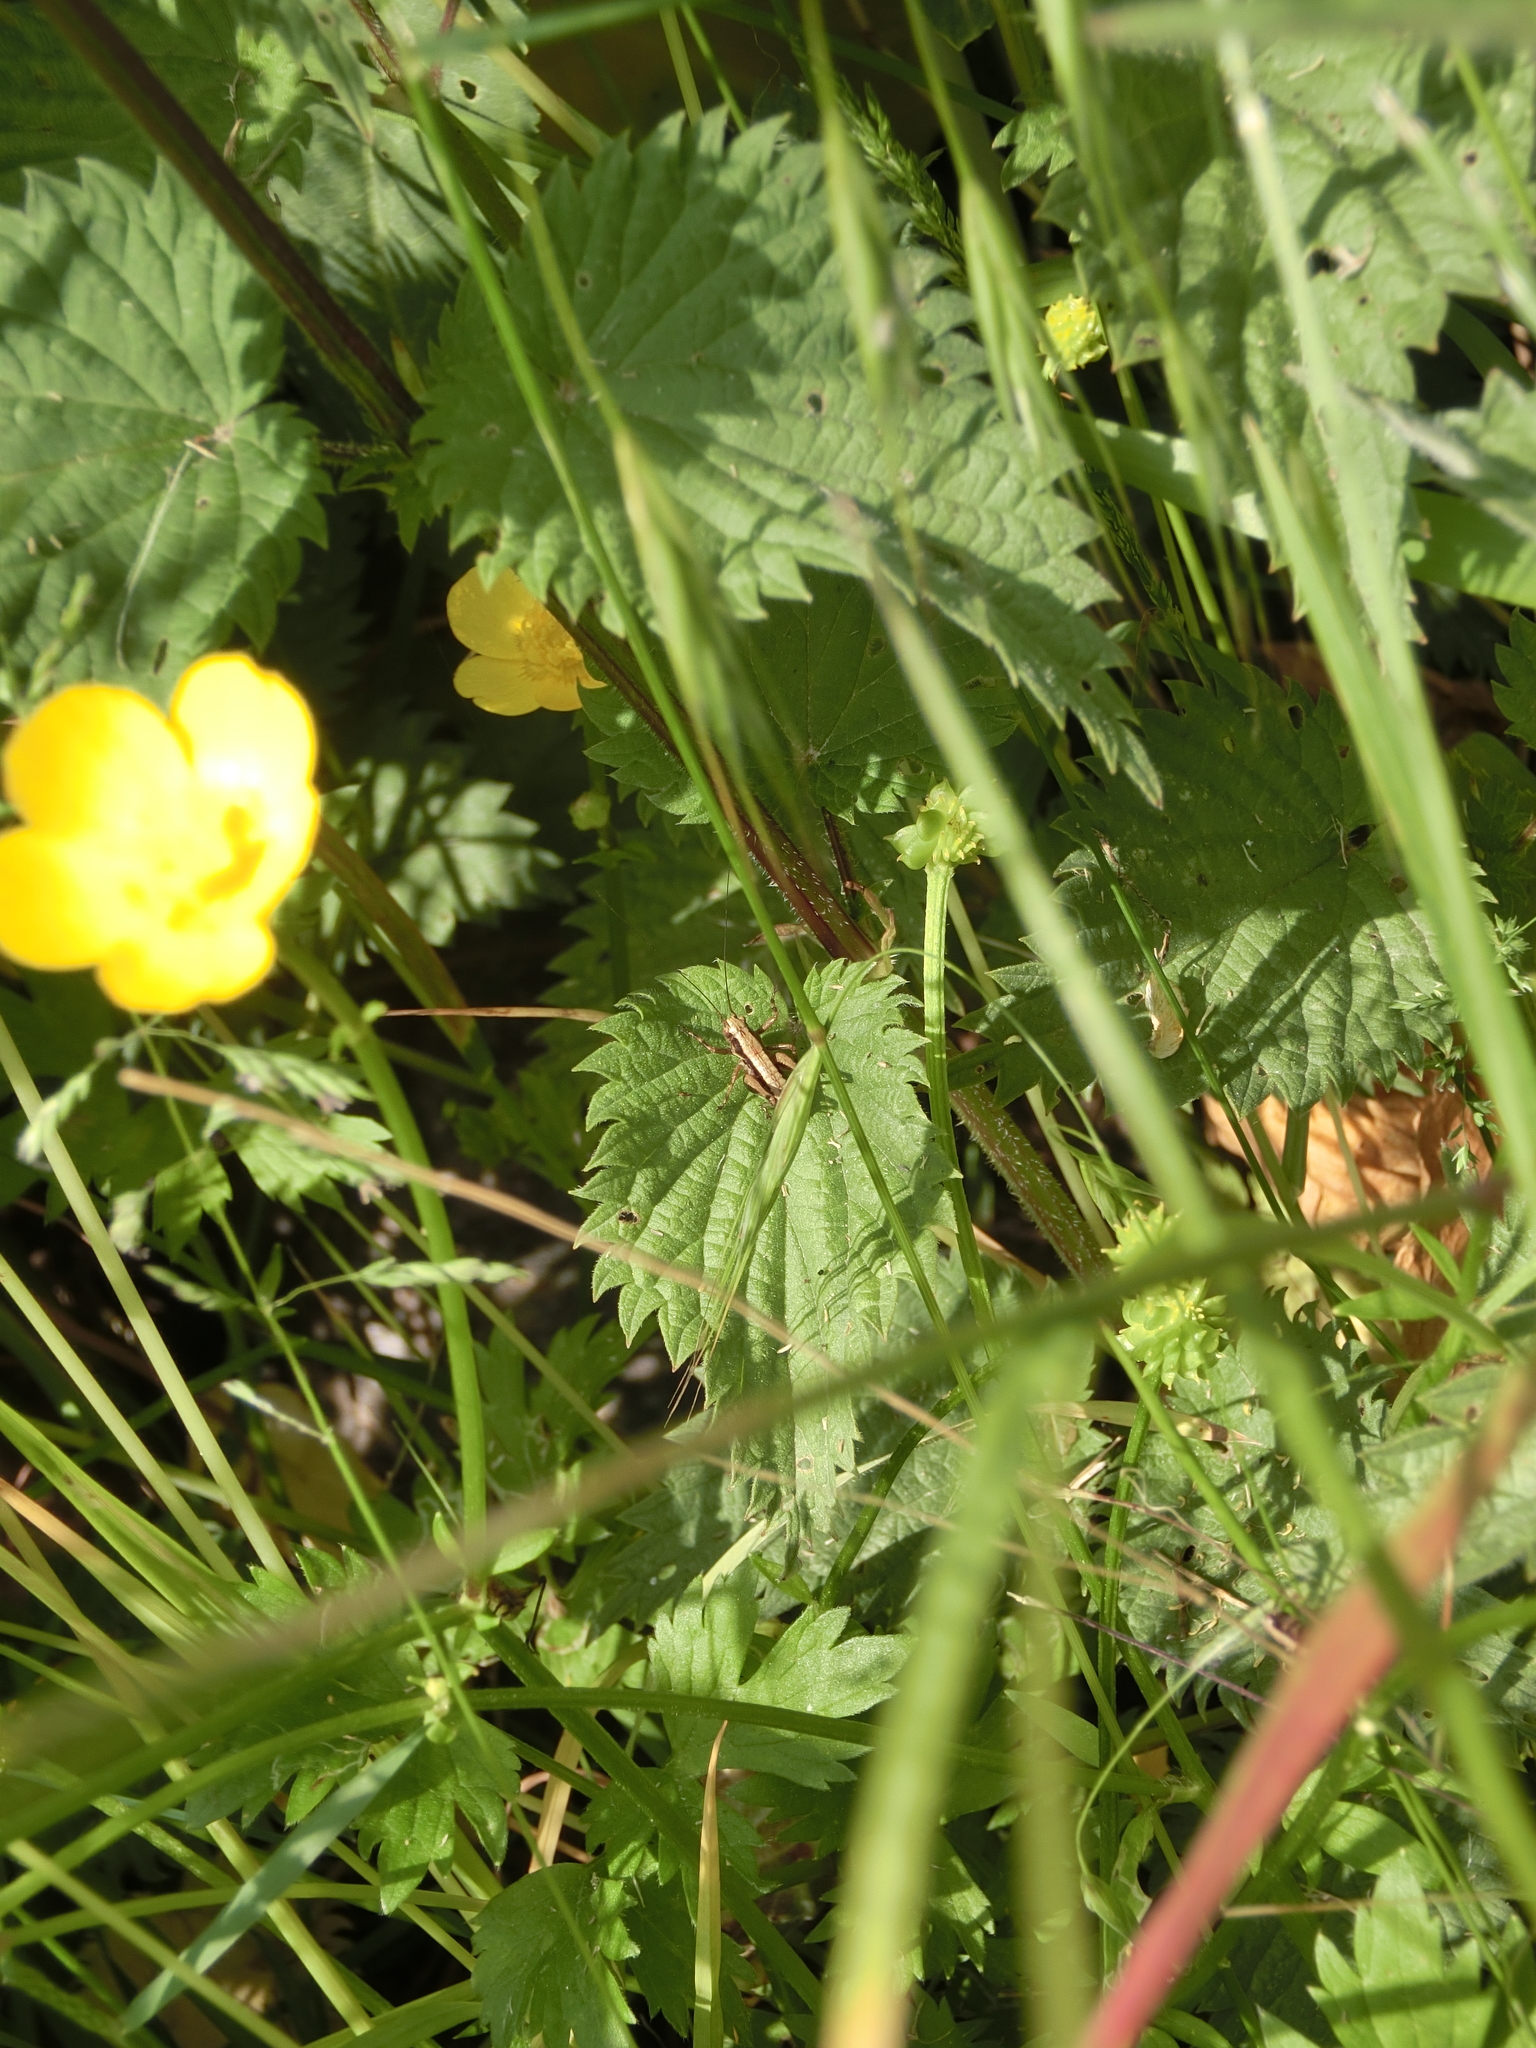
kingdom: Animalia
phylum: Arthropoda
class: Insecta
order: Orthoptera
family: Tettigoniidae
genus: Pholidoptera
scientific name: Pholidoptera griseoaptera
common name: Dark bush-cricket
